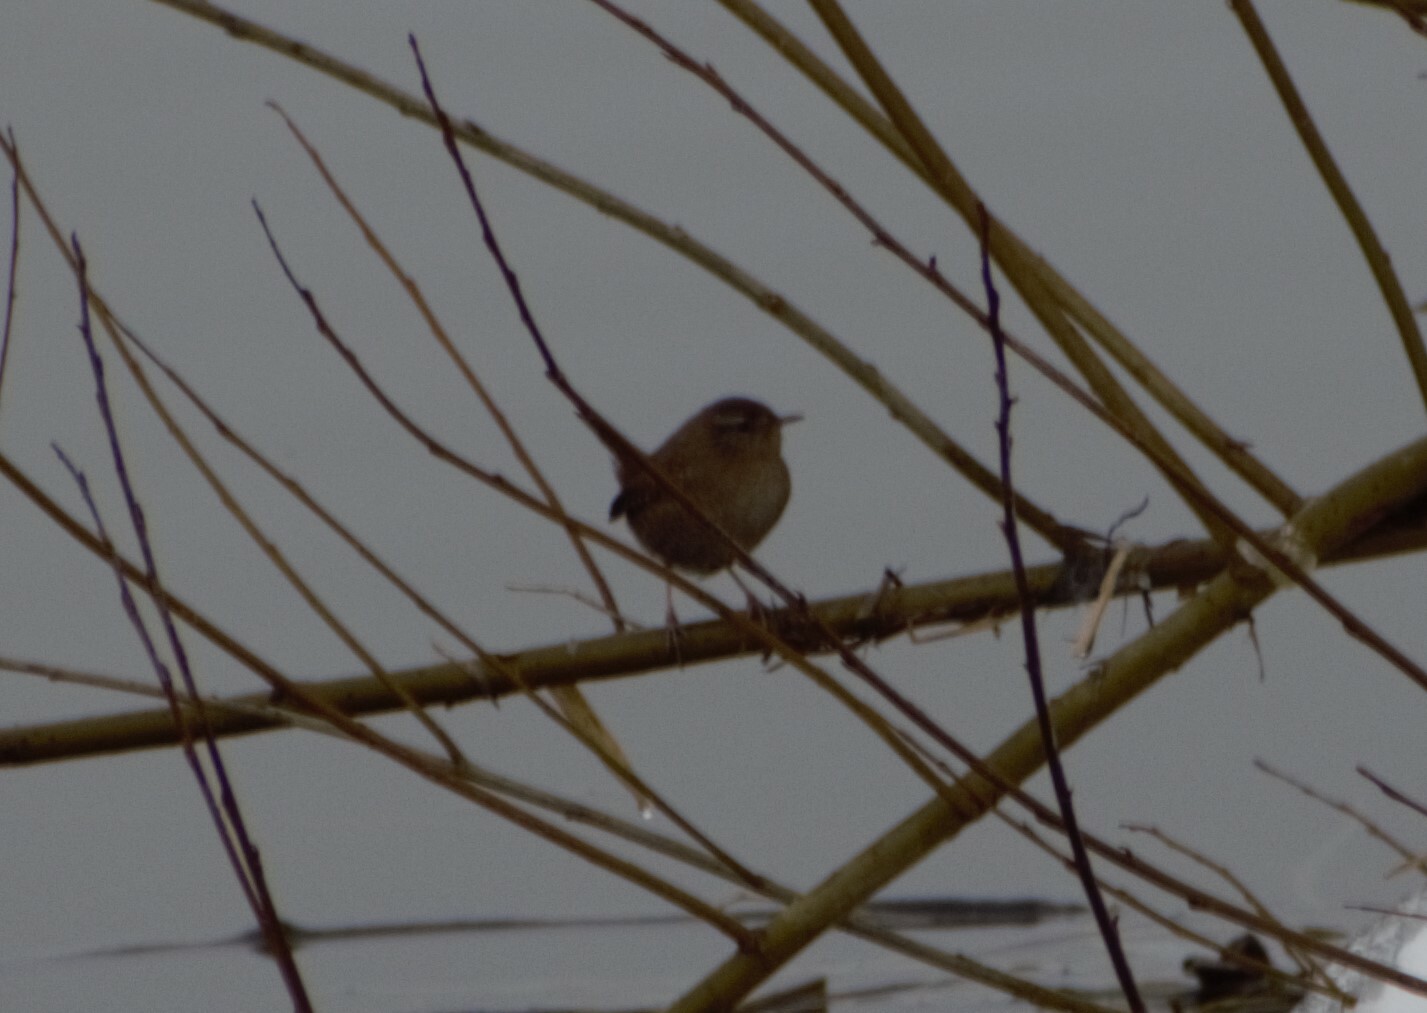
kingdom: Animalia
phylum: Chordata
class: Aves
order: Passeriformes
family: Troglodytidae
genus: Troglodytes
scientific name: Troglodytes troglodytes
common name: Eurasian wren
